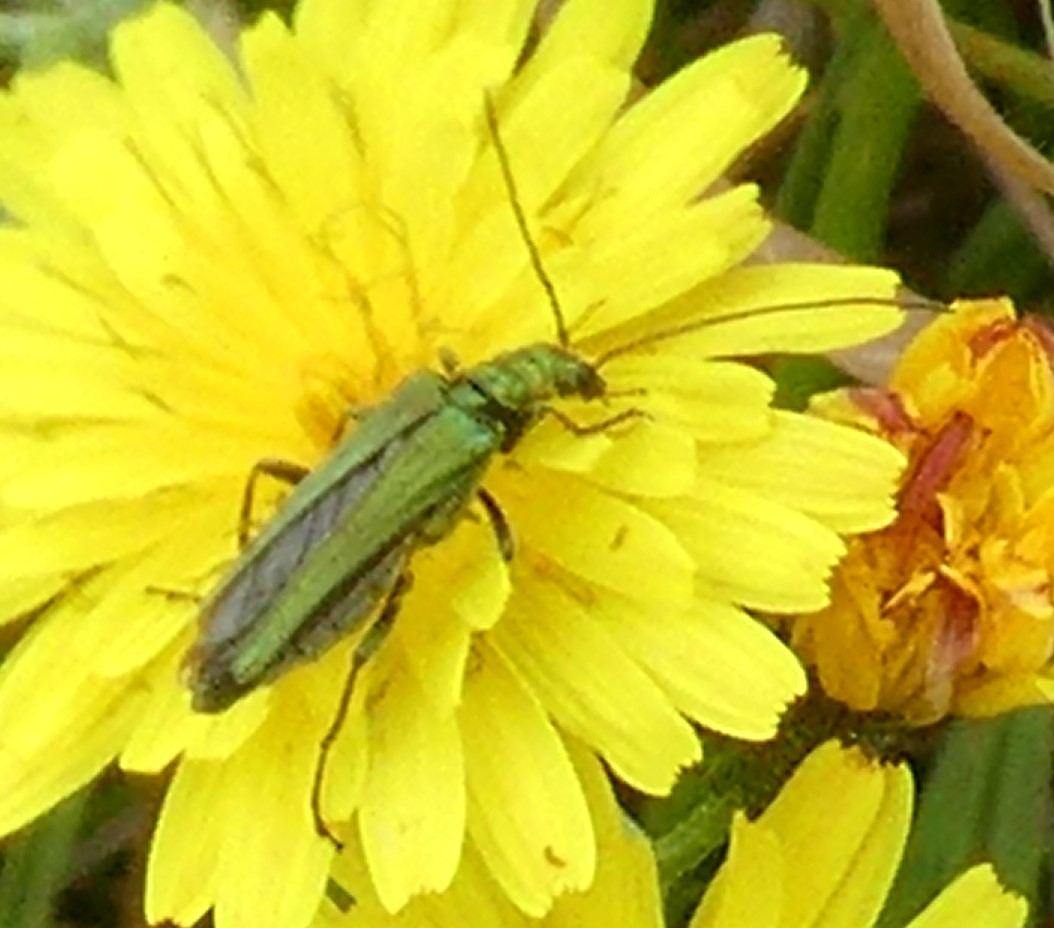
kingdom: Animalia
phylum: Arthropoda
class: Insecta
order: Coleoptera
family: Oedemeridae
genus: Oedemera
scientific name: Oedemera nobilis
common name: Swollen-thighed beetle
